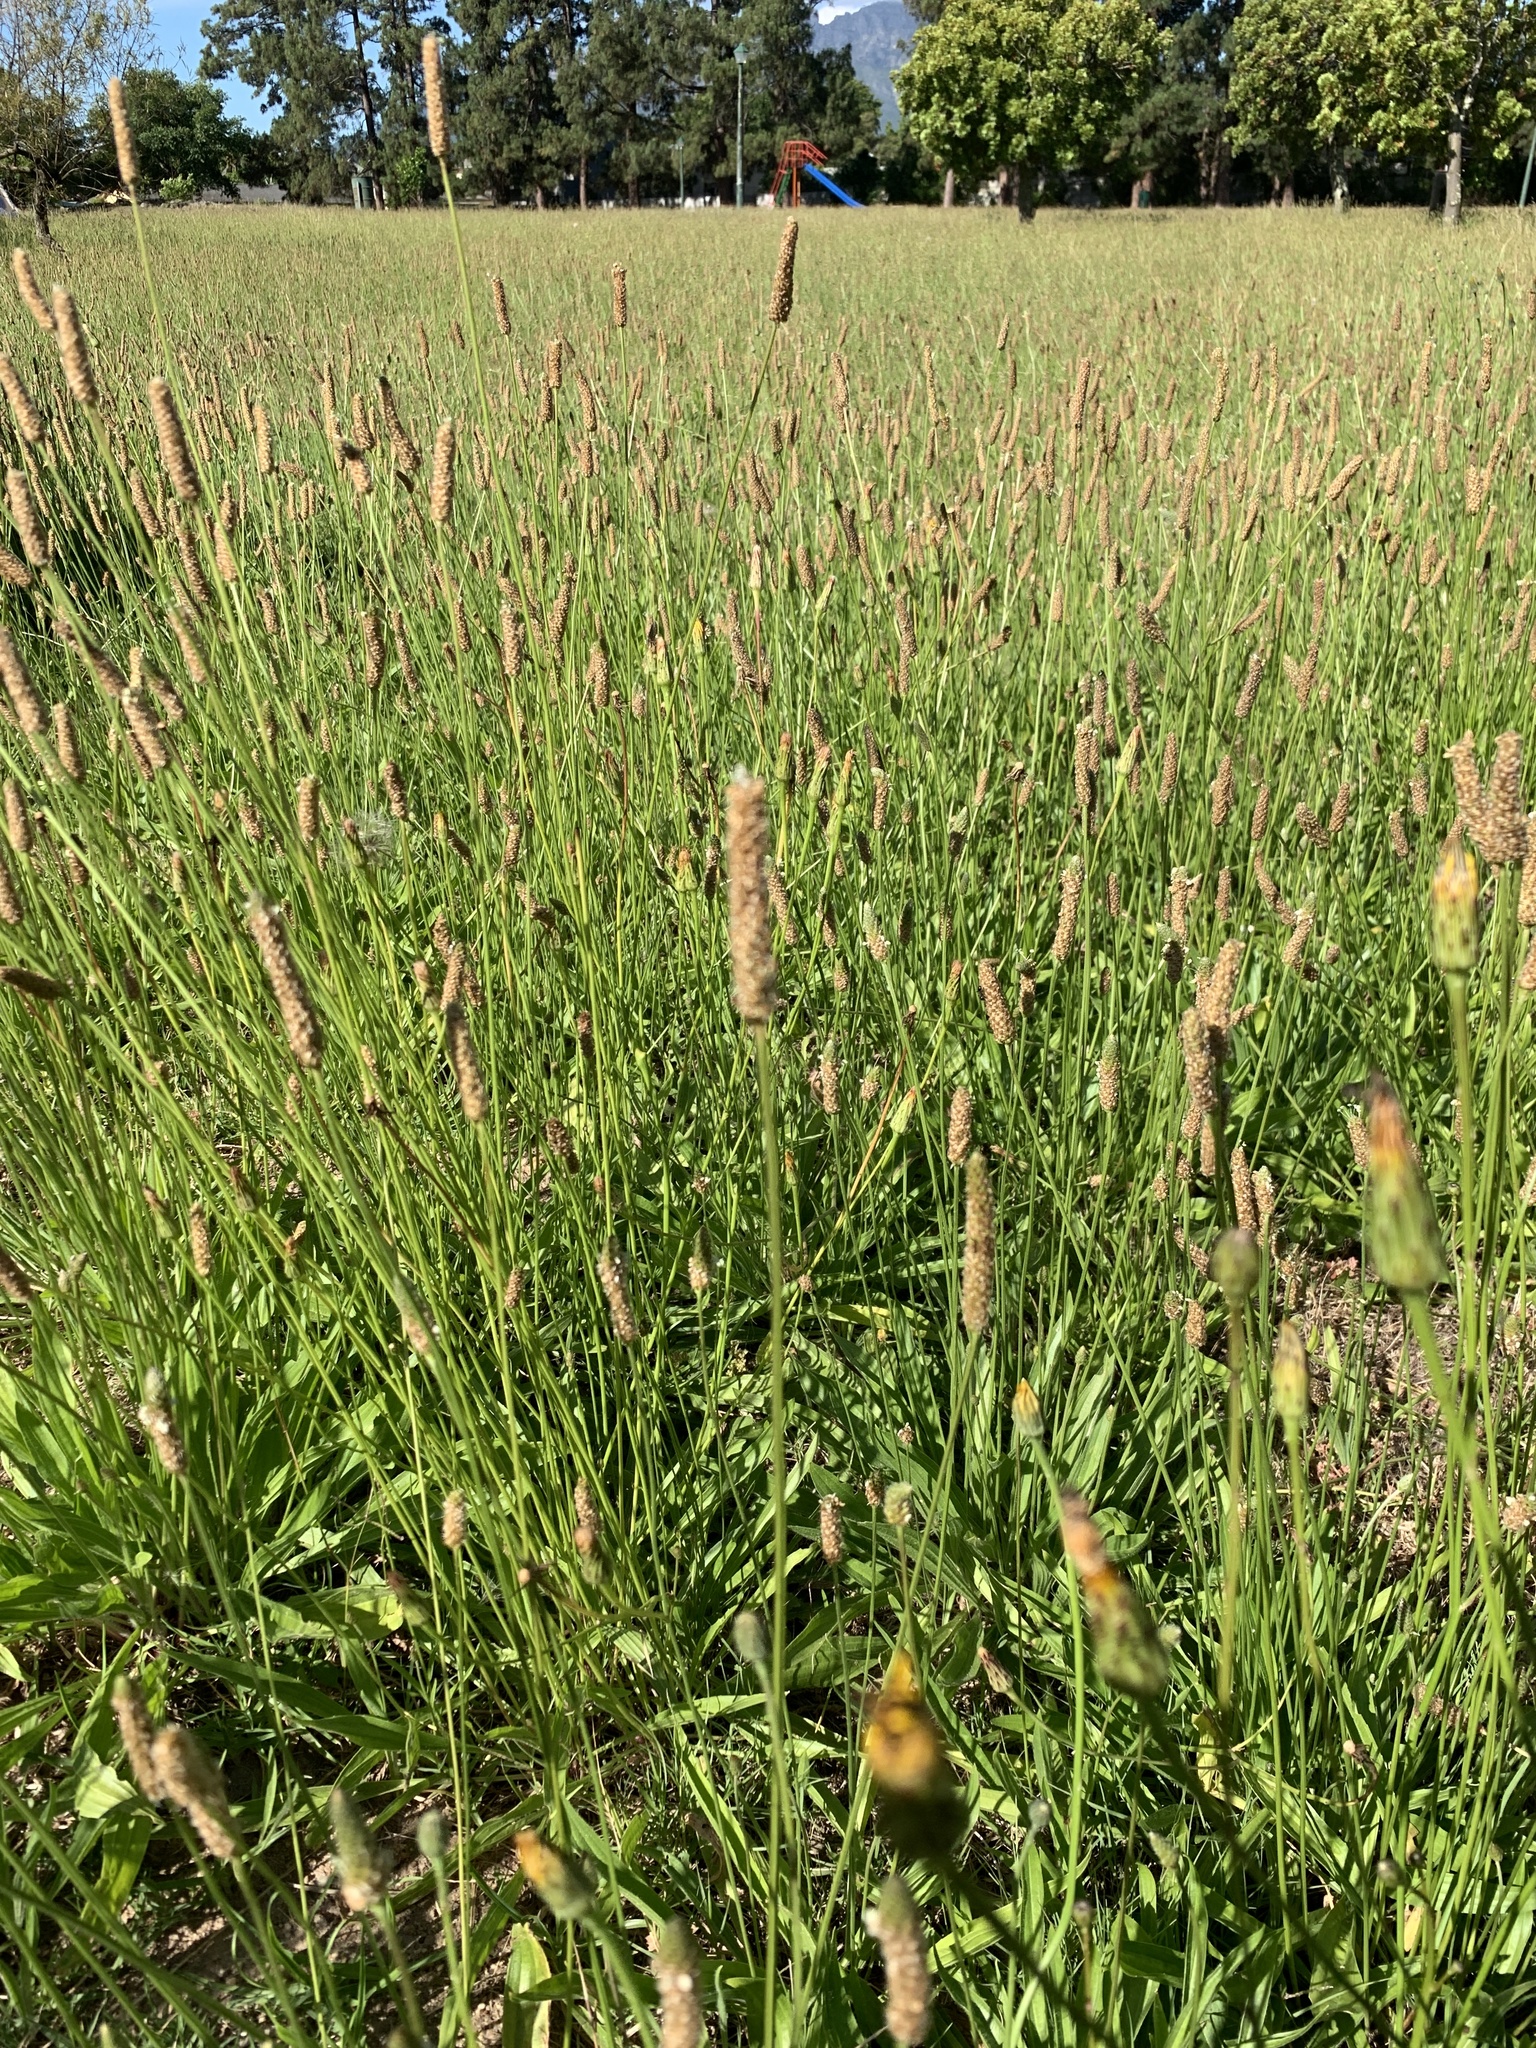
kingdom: Plantae
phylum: Tracheophyta
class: Magnoliopsida
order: Lamiales
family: Plantaginaceae
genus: Plantago
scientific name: Plantago lanceolata
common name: Ribwort plantain
